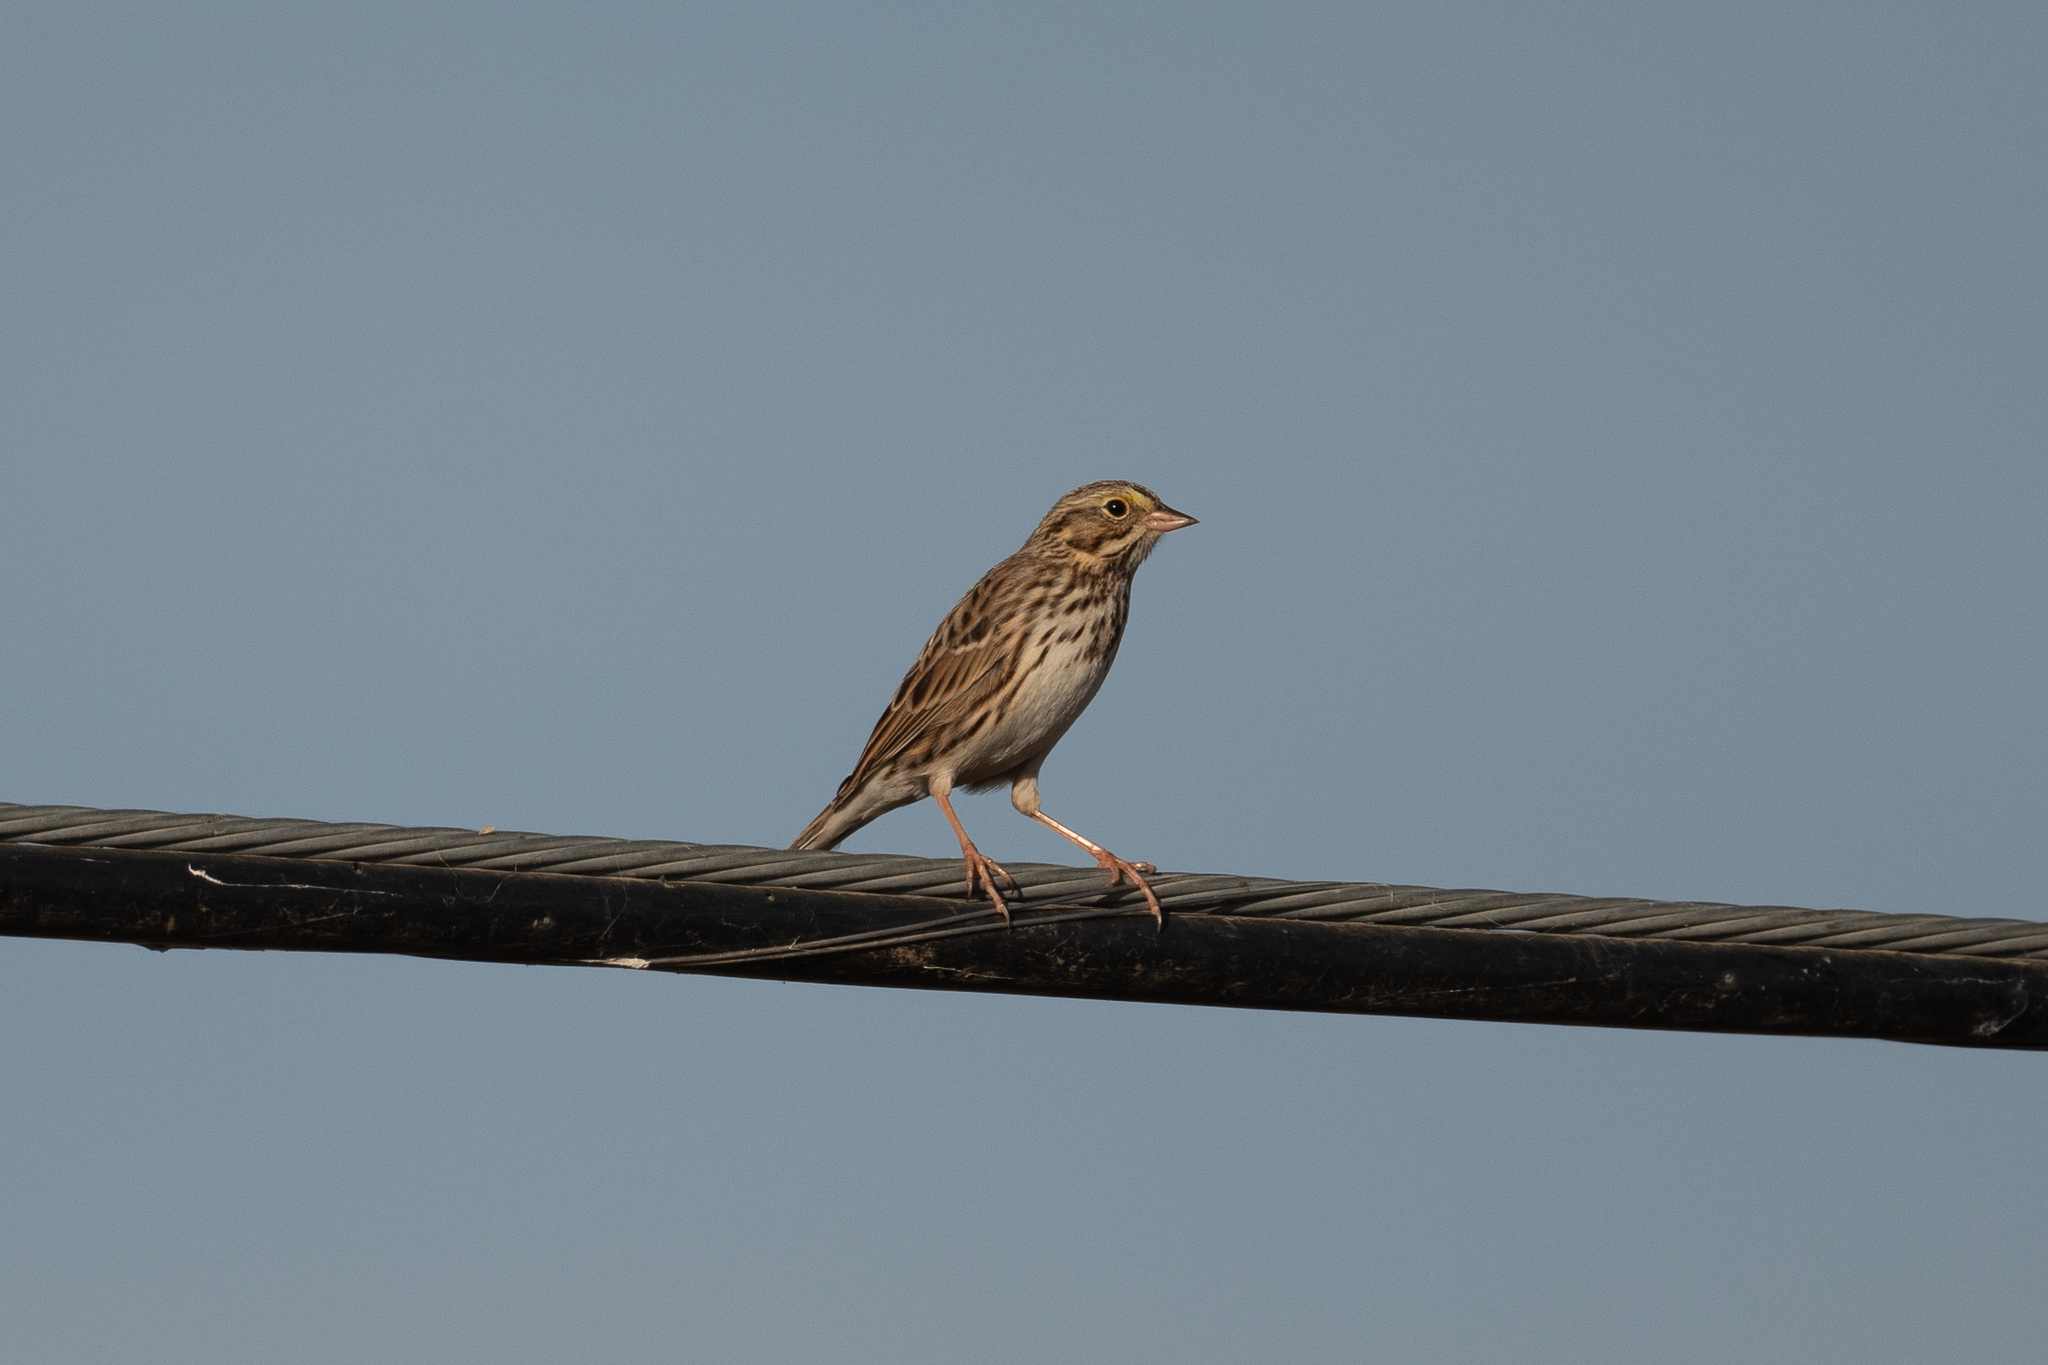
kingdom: Animalia
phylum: Chordata
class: Aves
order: Passeriformes
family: Passerellidae
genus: Passerculus
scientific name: Passerculus sandwichensis
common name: Savannah sparrow
